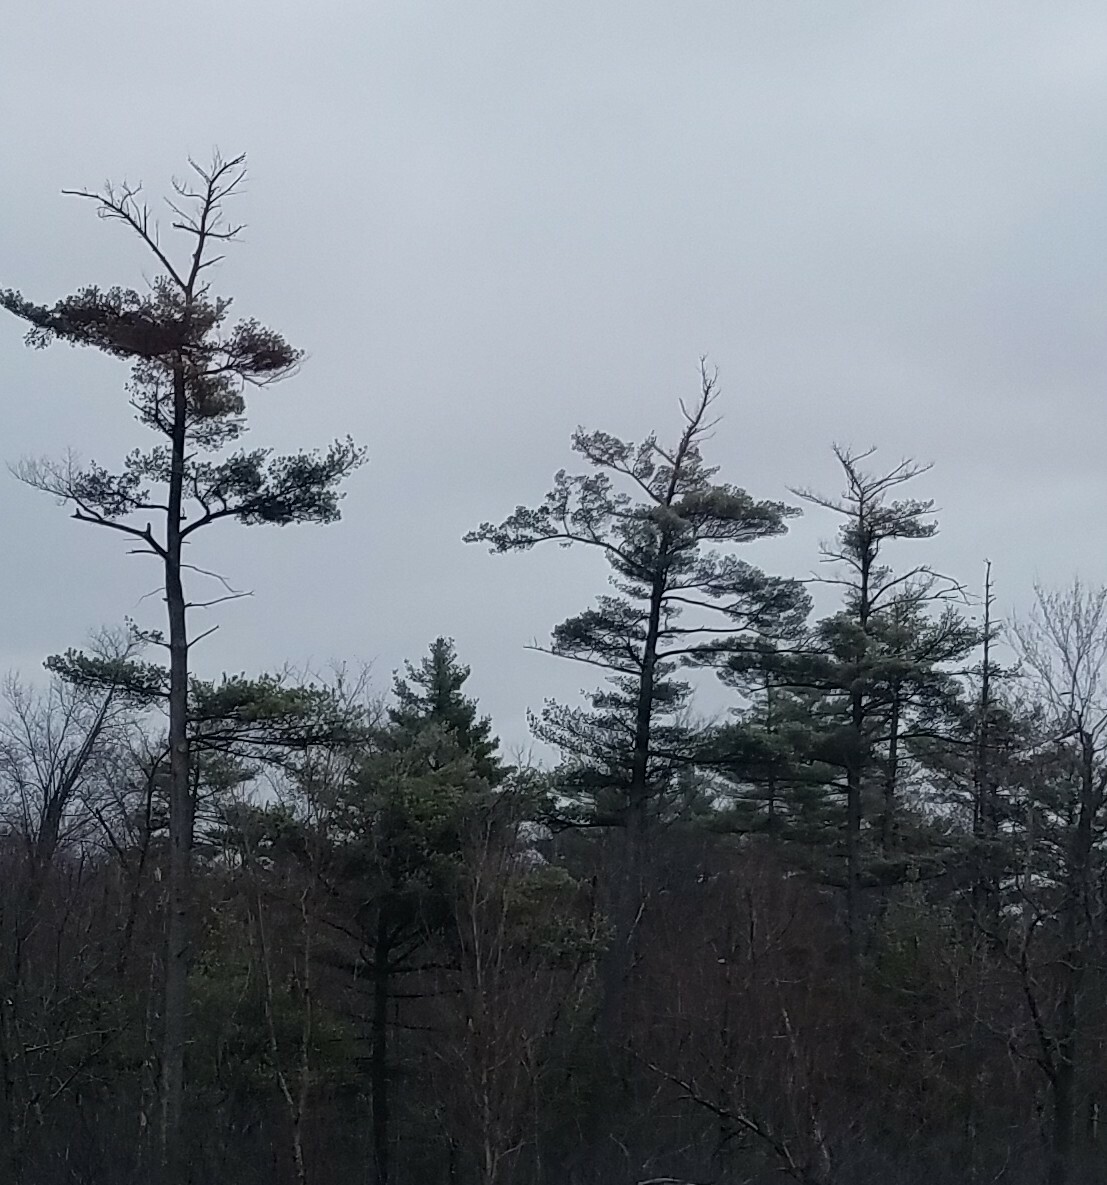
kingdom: Plantae
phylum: Tracheophyta
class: Pinopsida
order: Pinales
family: Pinaceae
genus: Pinus
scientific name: Pinus strobus
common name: Weymouth pine
